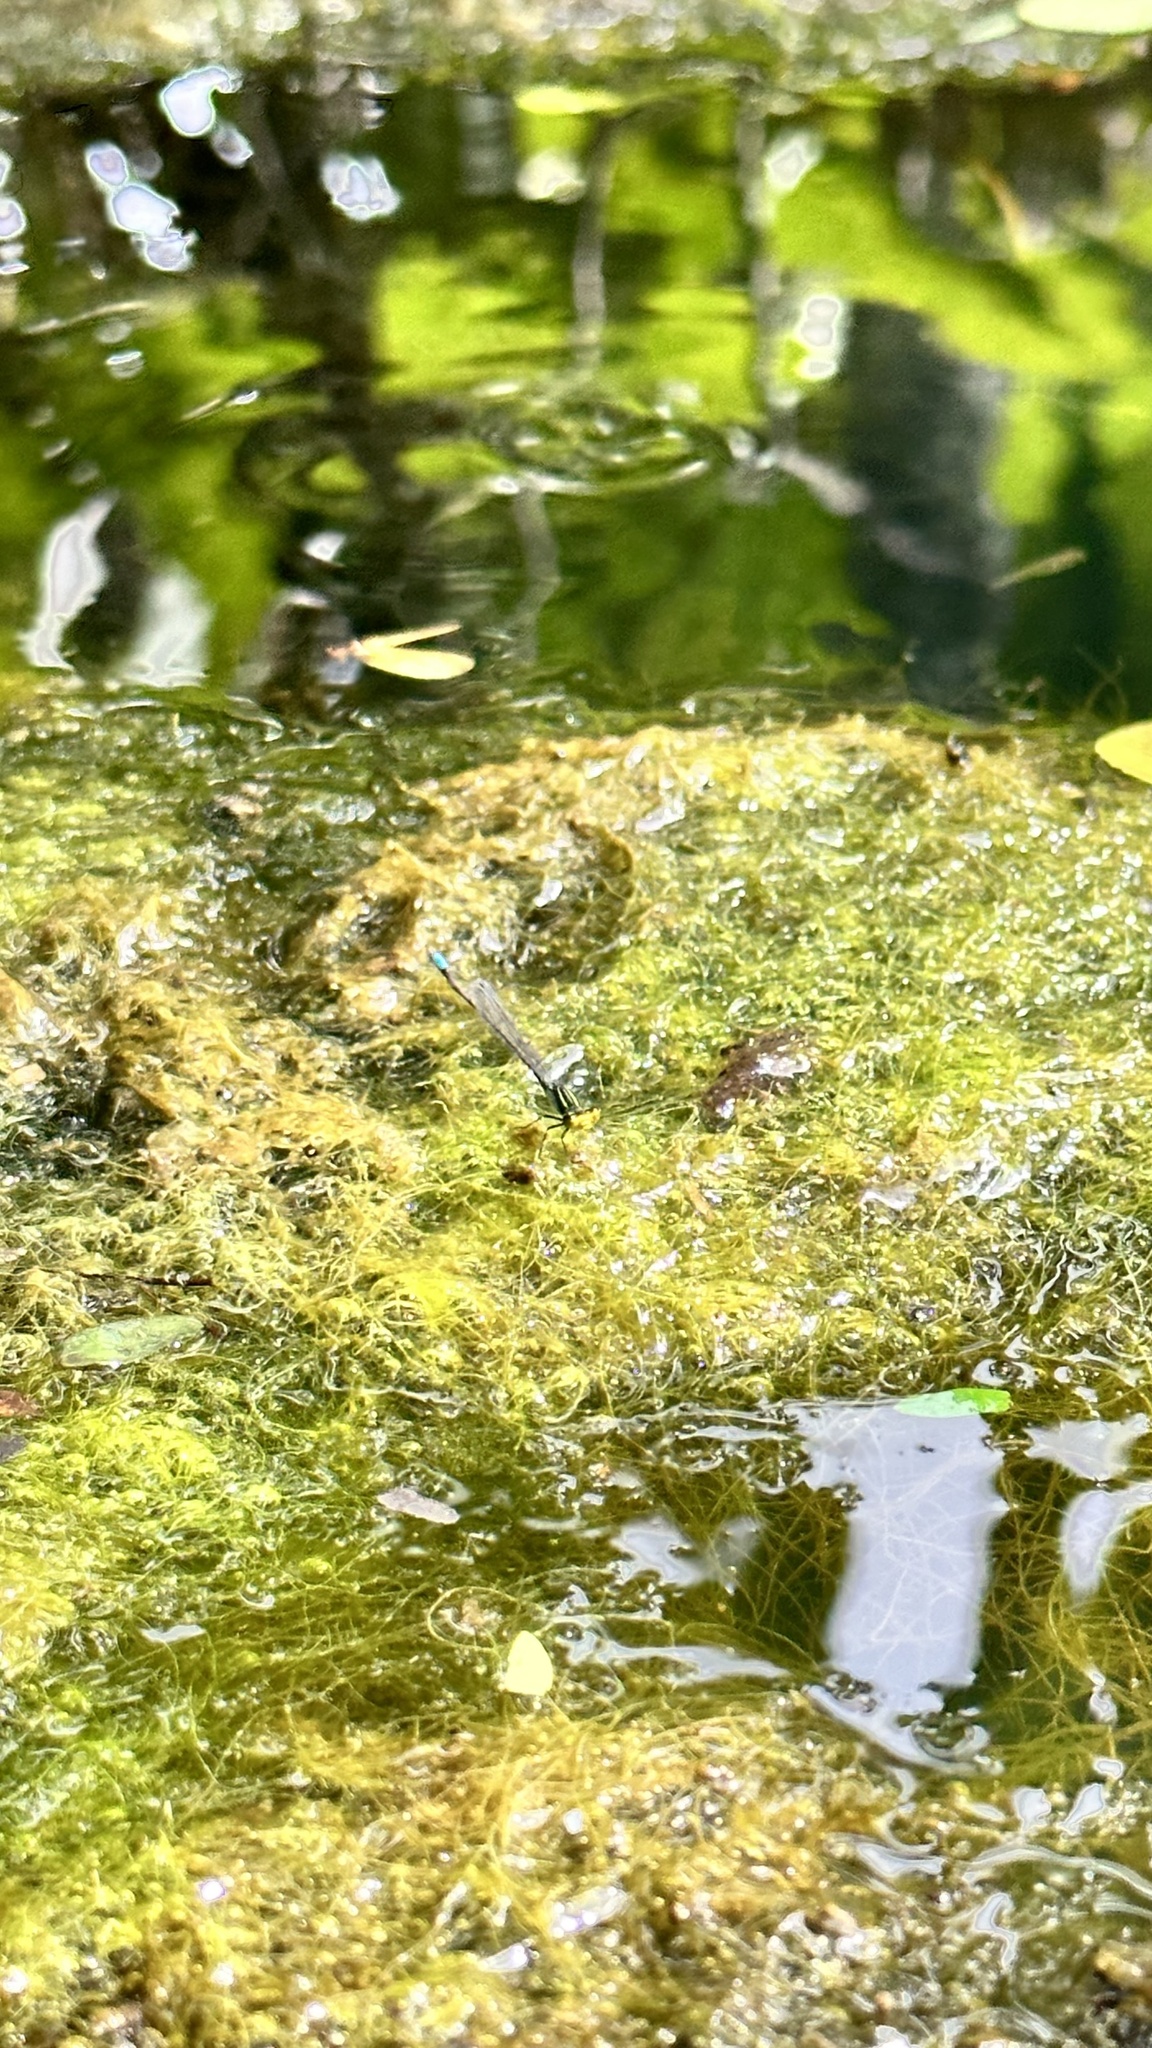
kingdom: Animalia
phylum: Arthropoda
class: Insecta
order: Odonata
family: Coenagrionidae
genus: Neoerythromma
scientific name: Neoerythromma cultellatum
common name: Caribbean yellowface
